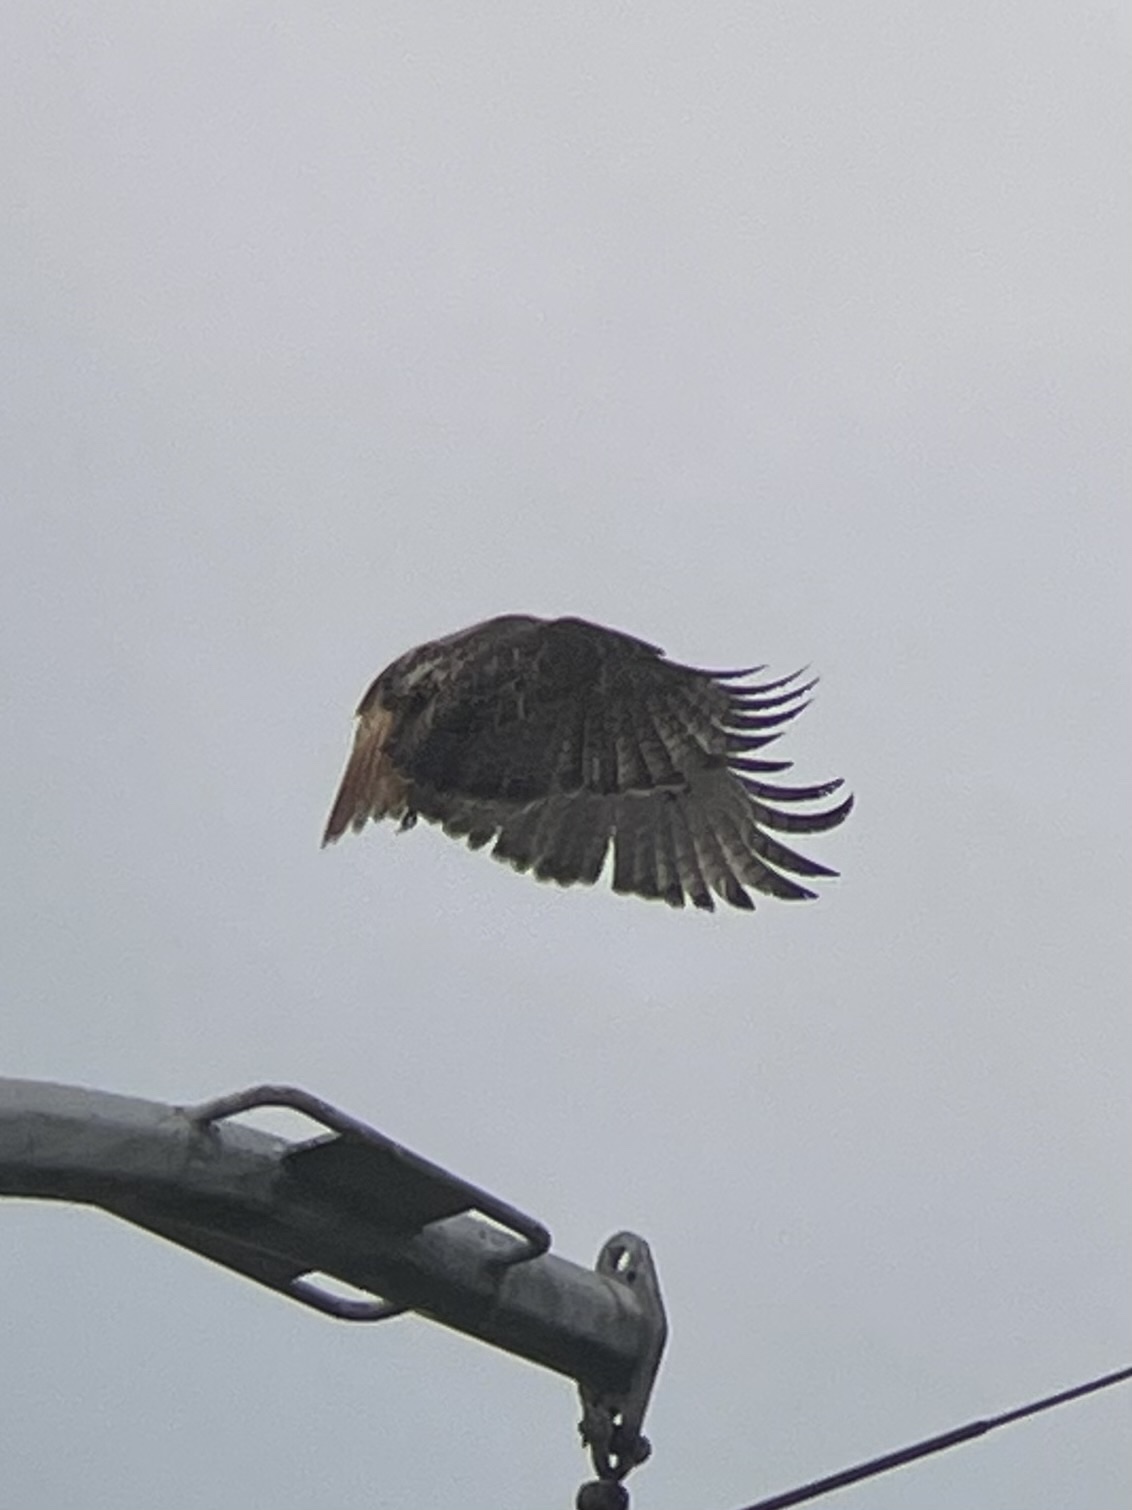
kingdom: Animalia
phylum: Chordata
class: Aves
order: Accipitriformes
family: Accipitridae
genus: Buteo
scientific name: Buteo jamaicensis
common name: Red-tailed hawk
